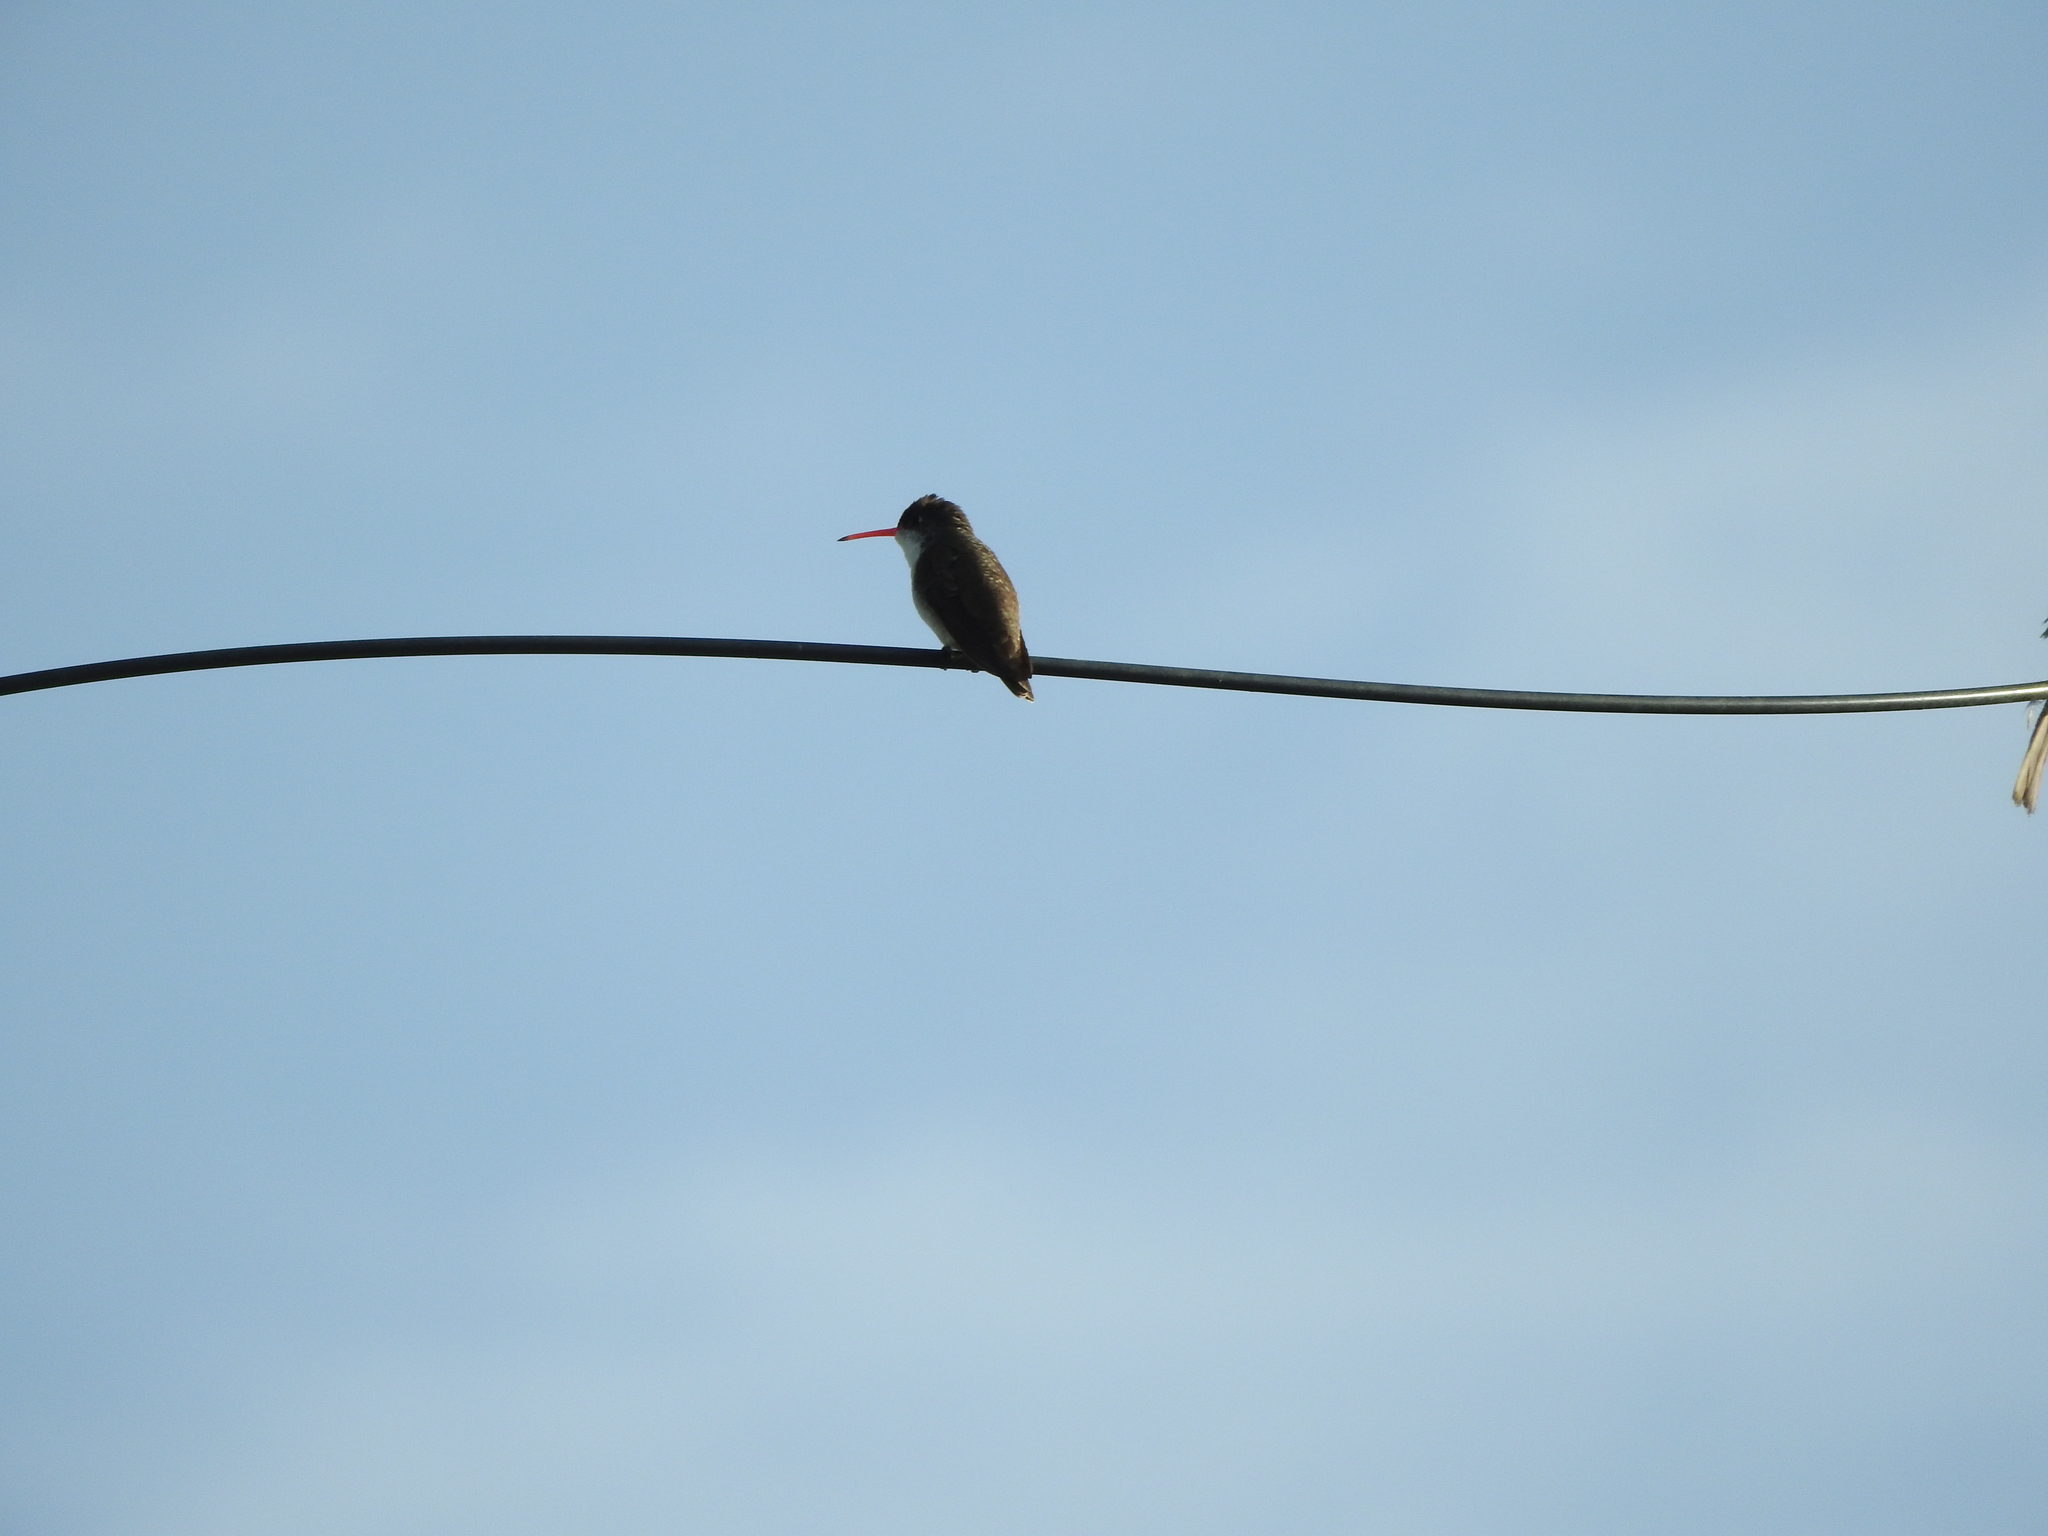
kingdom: Animalia
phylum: Chordata
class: Aves
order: Apodiformes
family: Trochilidae
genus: Leucolia
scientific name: Leucolia violiceps
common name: Violet-crowned hummingbird
